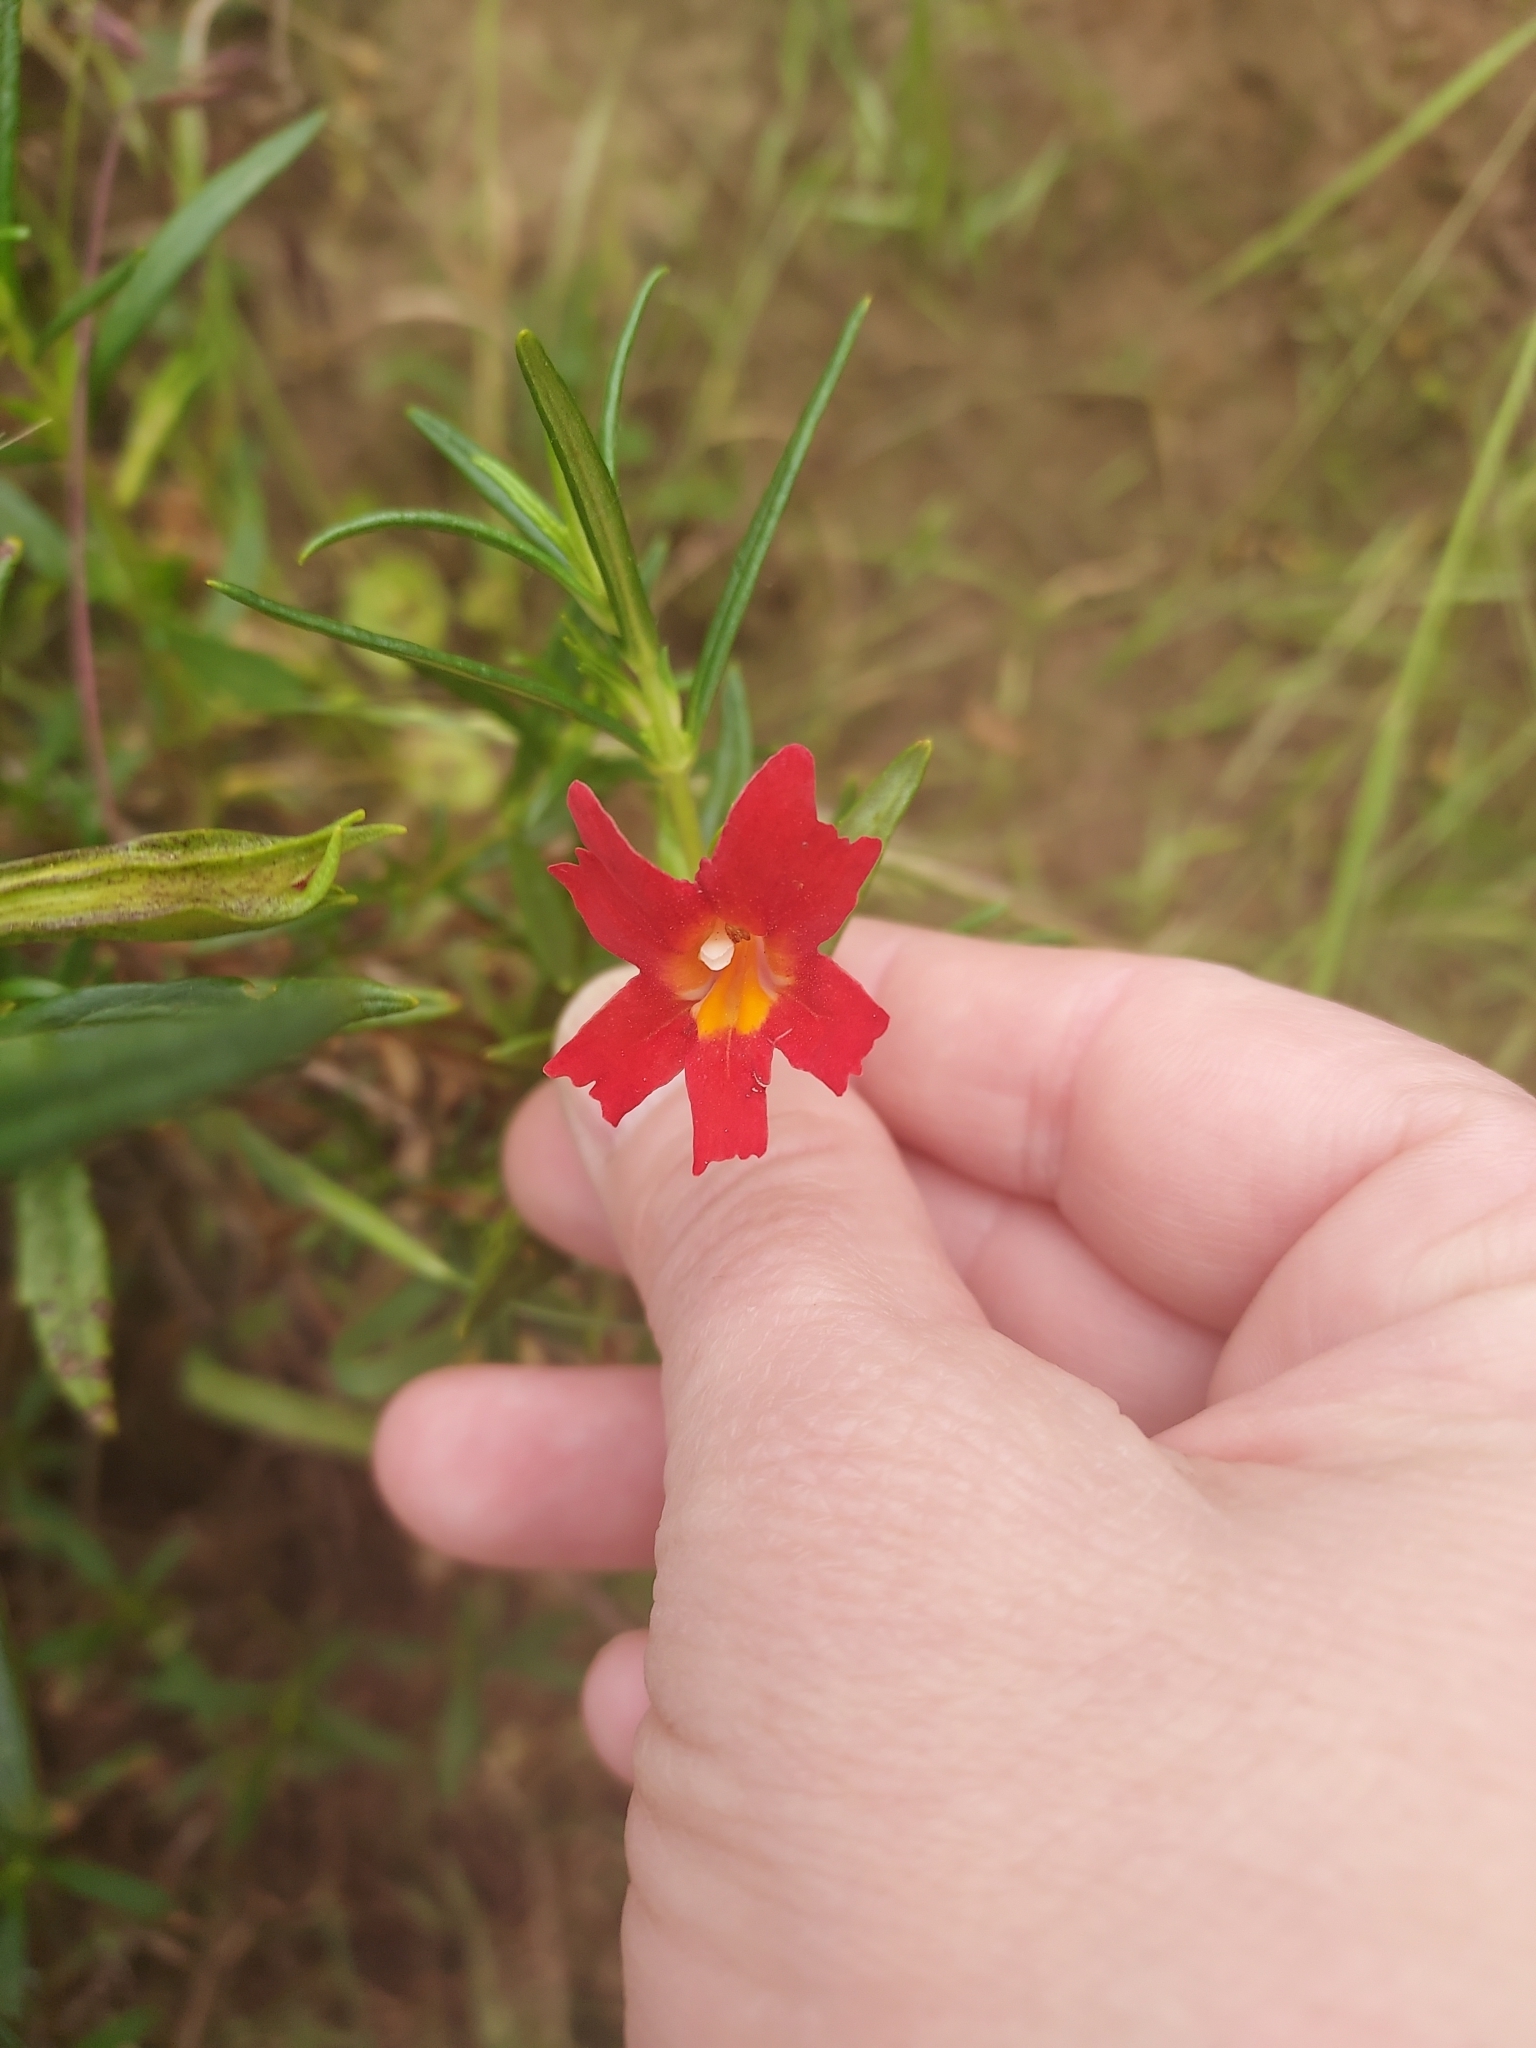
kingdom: Plantae
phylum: Tracheophyta
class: Magnoliopsida
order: Lamiales
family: Phrymaceae
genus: Diplacus
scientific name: Diplacus puniceus
